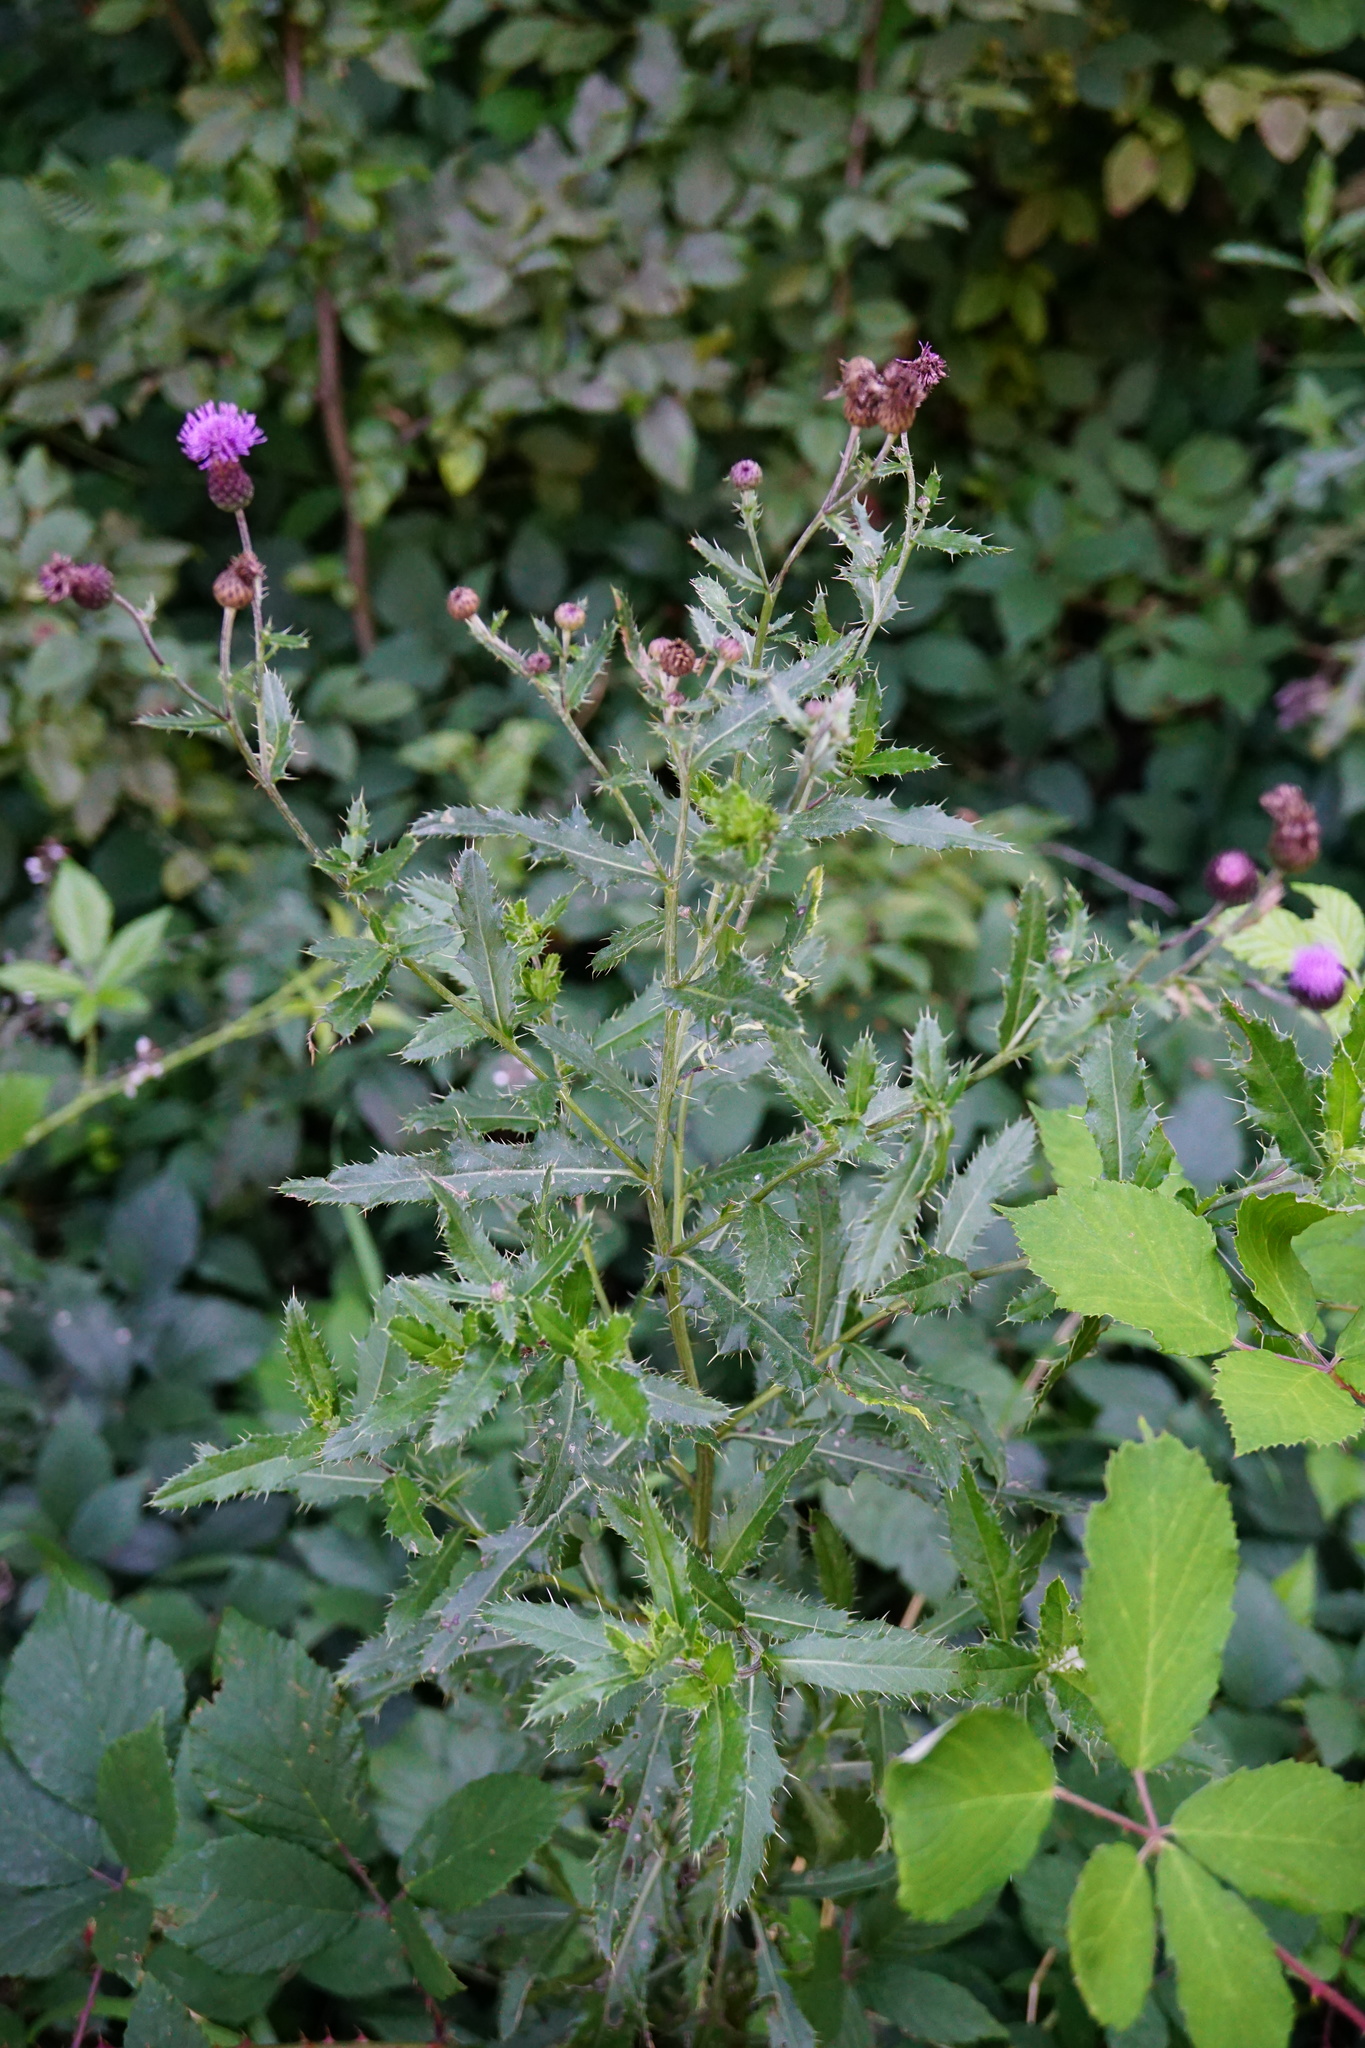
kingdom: Plantae
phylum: Tracheophyta
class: Magnoliopsida
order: Asterales
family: Asteraceae
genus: Cirsium
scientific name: Cirsium arvense
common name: Creeping thistle
